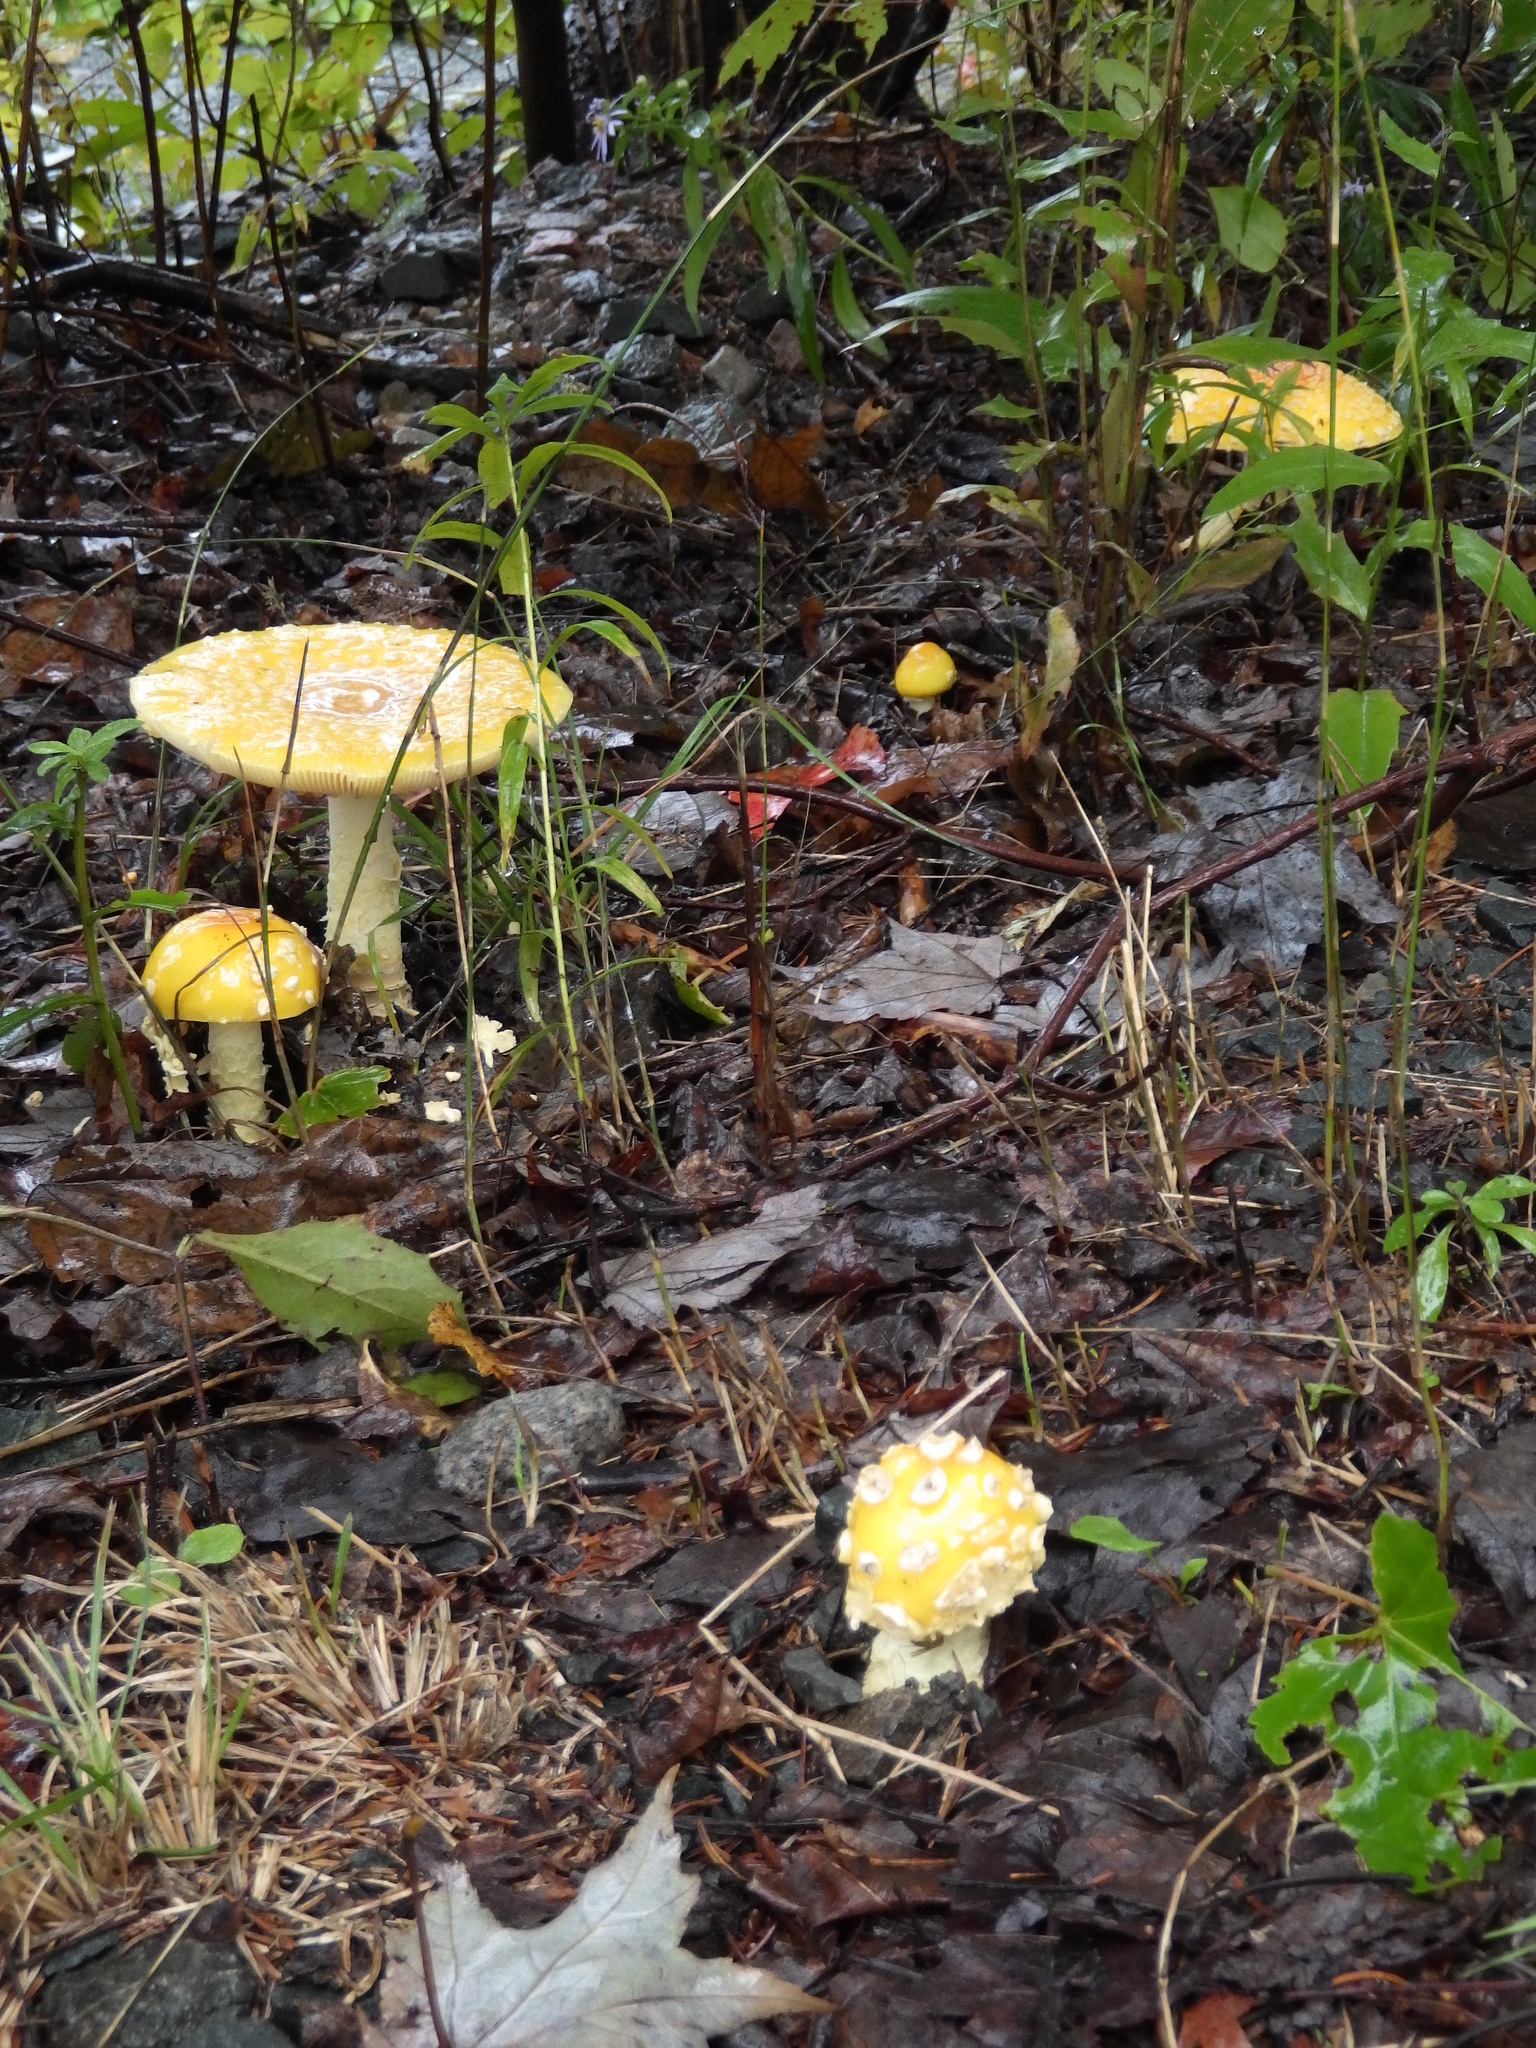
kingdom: Fungi
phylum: Basidiomycota
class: Agaricomycetes
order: Agaricales
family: Amanitaceae
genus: Amanita
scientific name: Amanita muscaria
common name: Fly agaric
